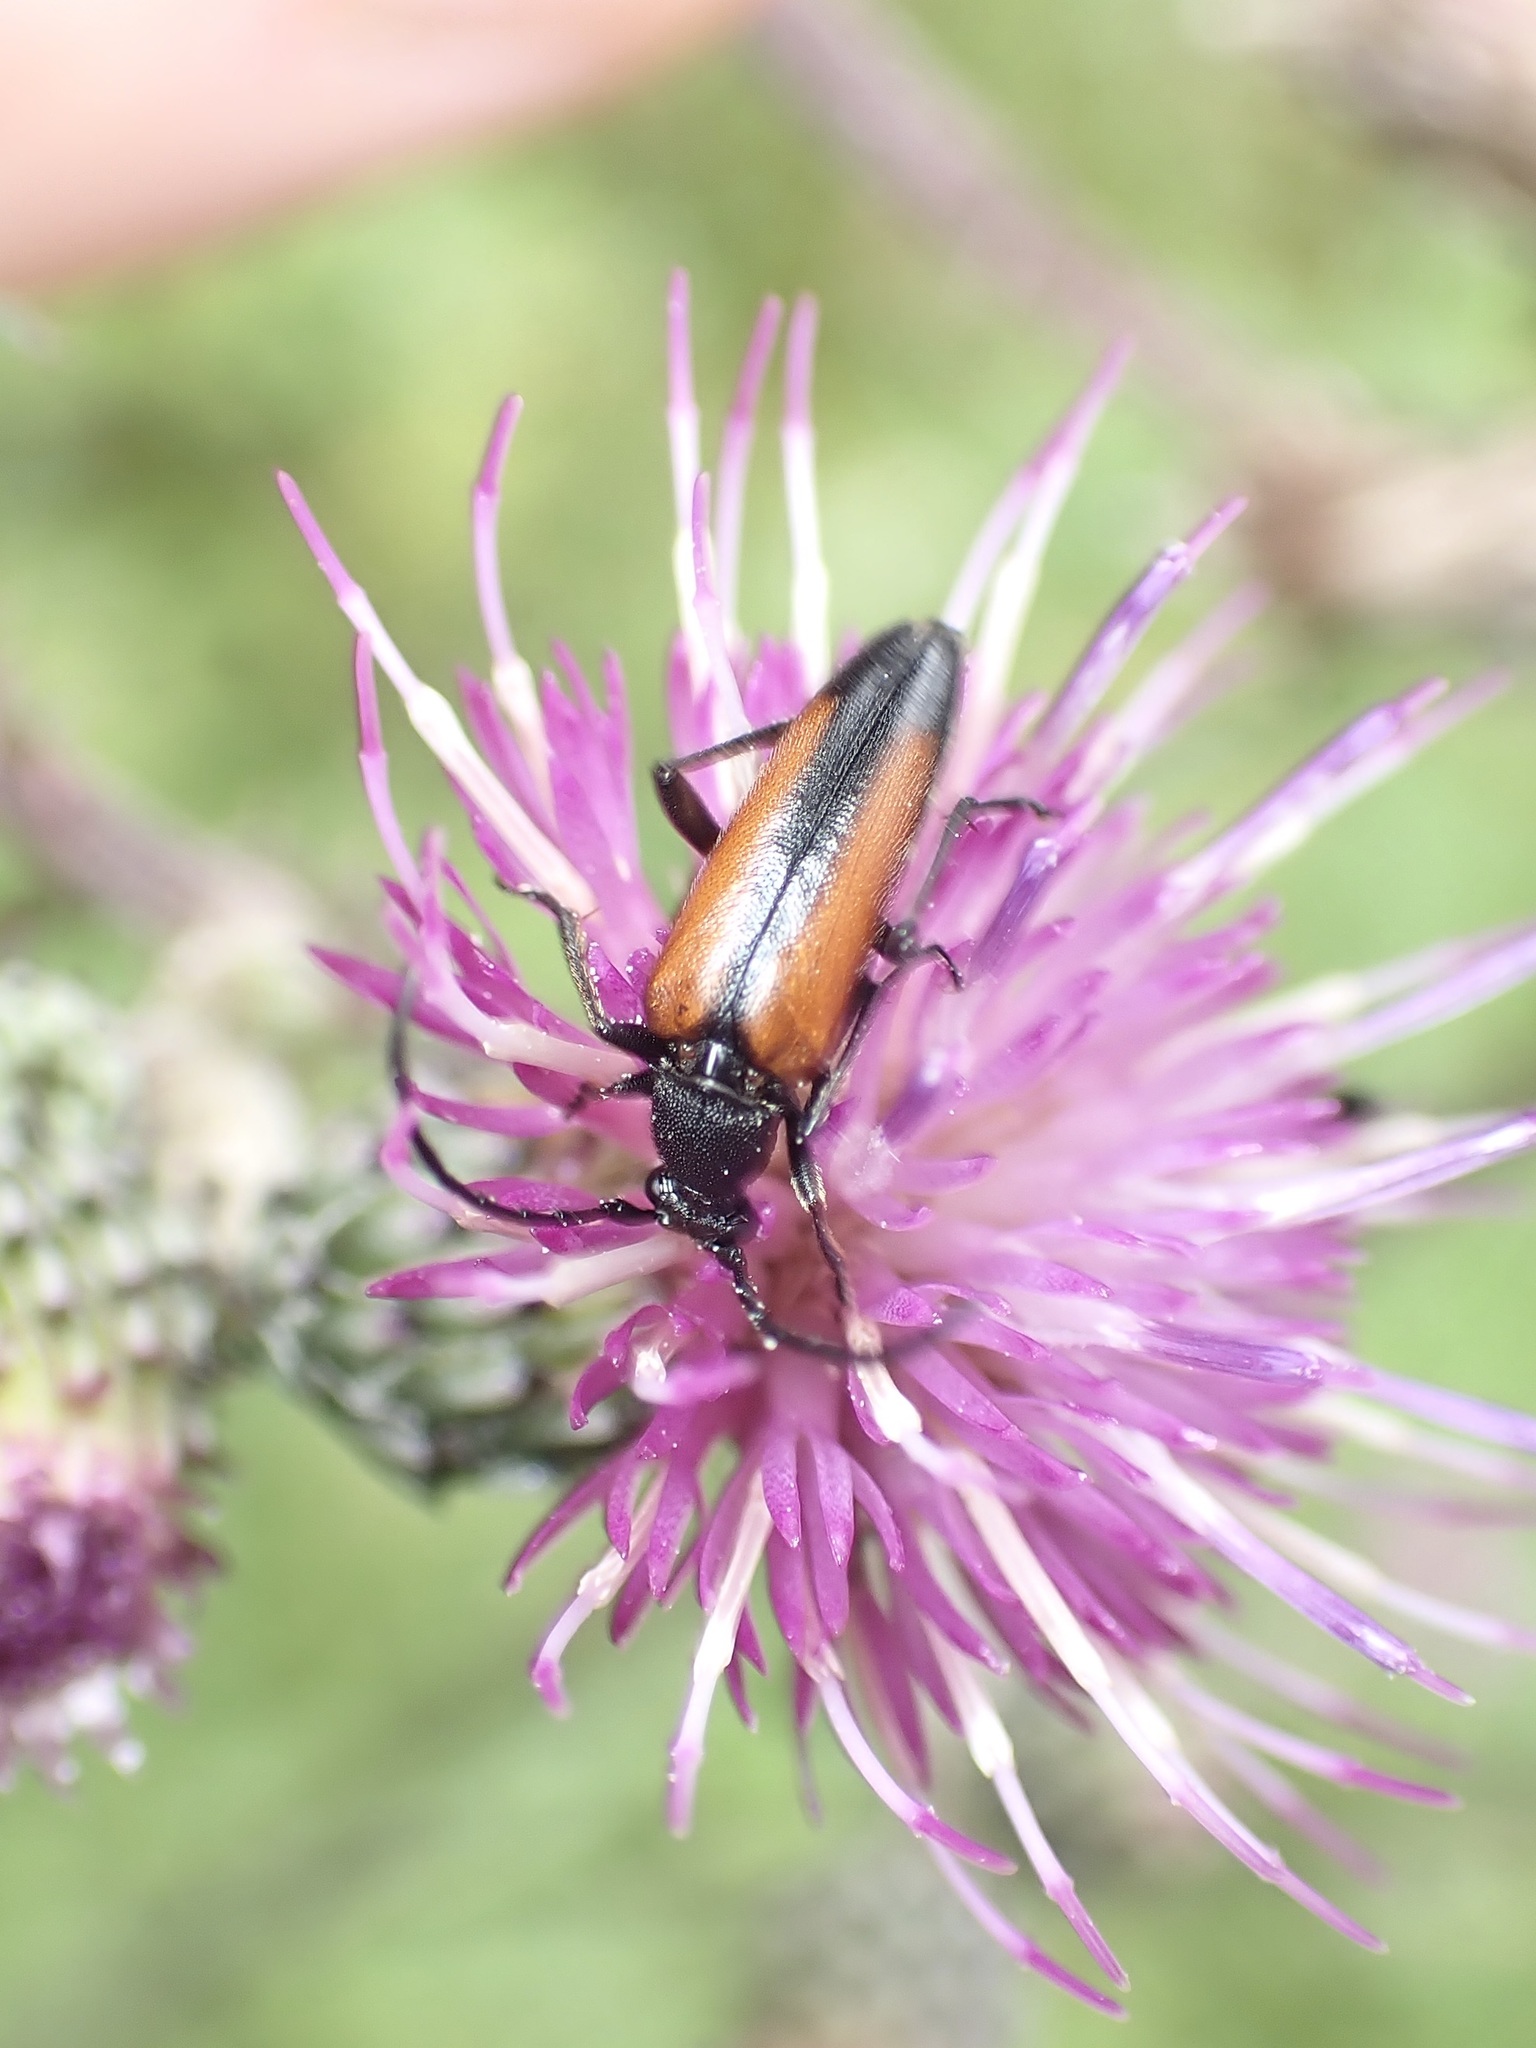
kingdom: Animalia
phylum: Arthropoda
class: Insecta
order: Coleoptera
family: Cerambycidae
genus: Stenurella
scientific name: Stenurella melanura
